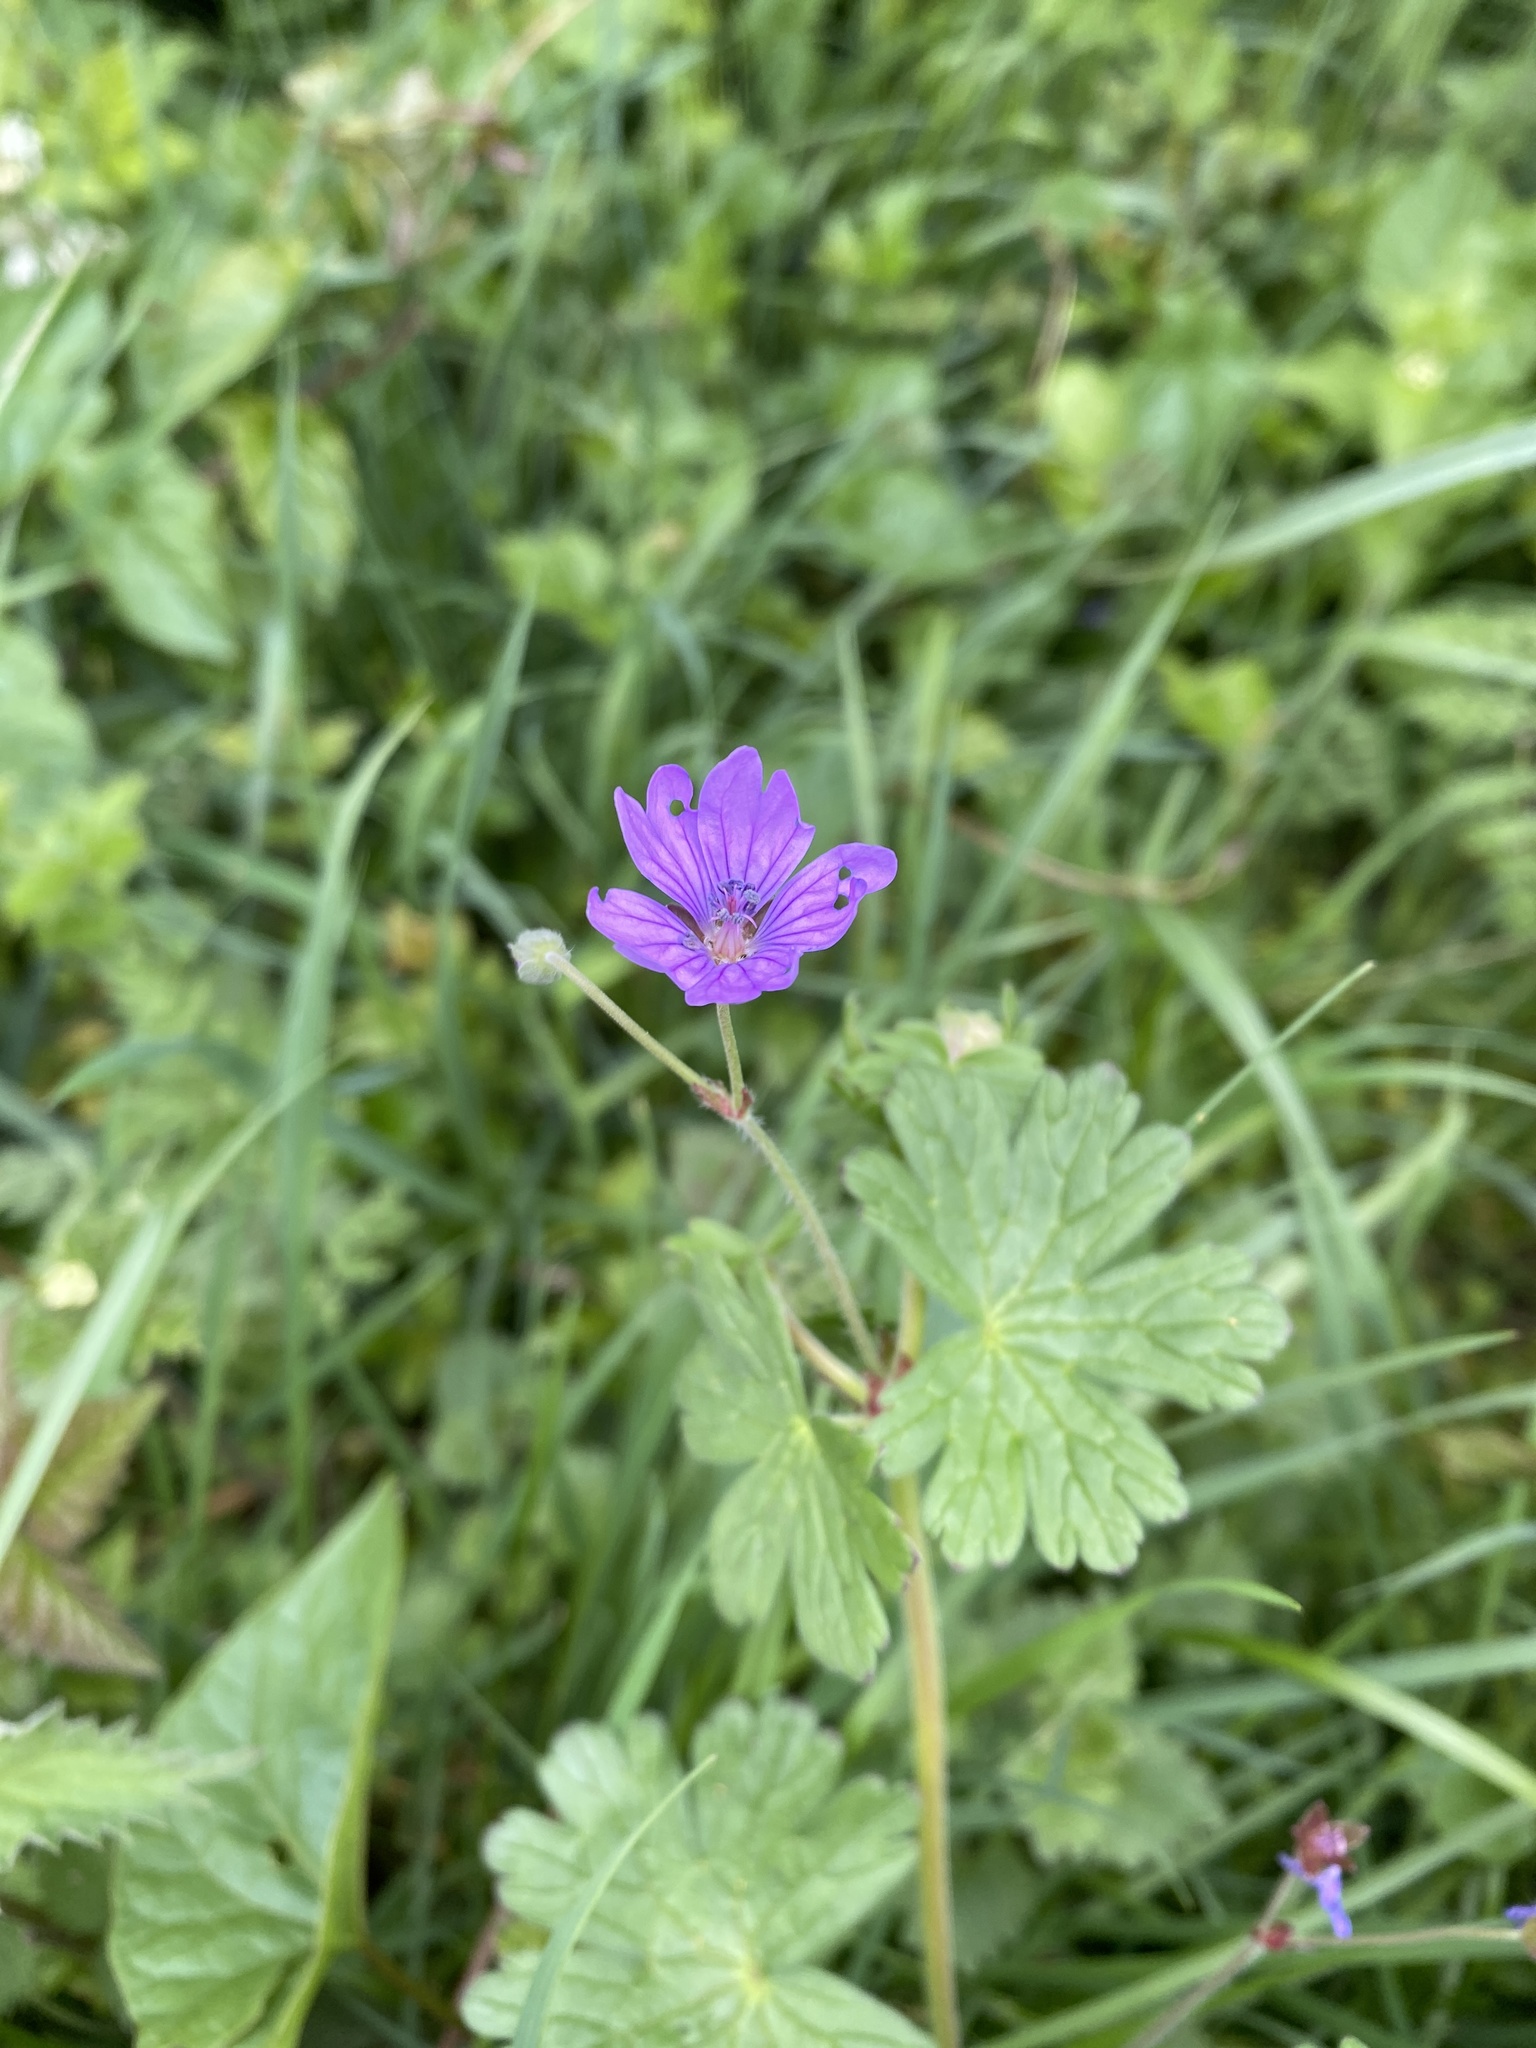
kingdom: Plantae
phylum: Tracheophyta
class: Magnoliopsida
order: Geraniales
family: Geraniaceae
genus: Geranium
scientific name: Geranium pyrenaicum
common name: Hedgerow crane's-bill
